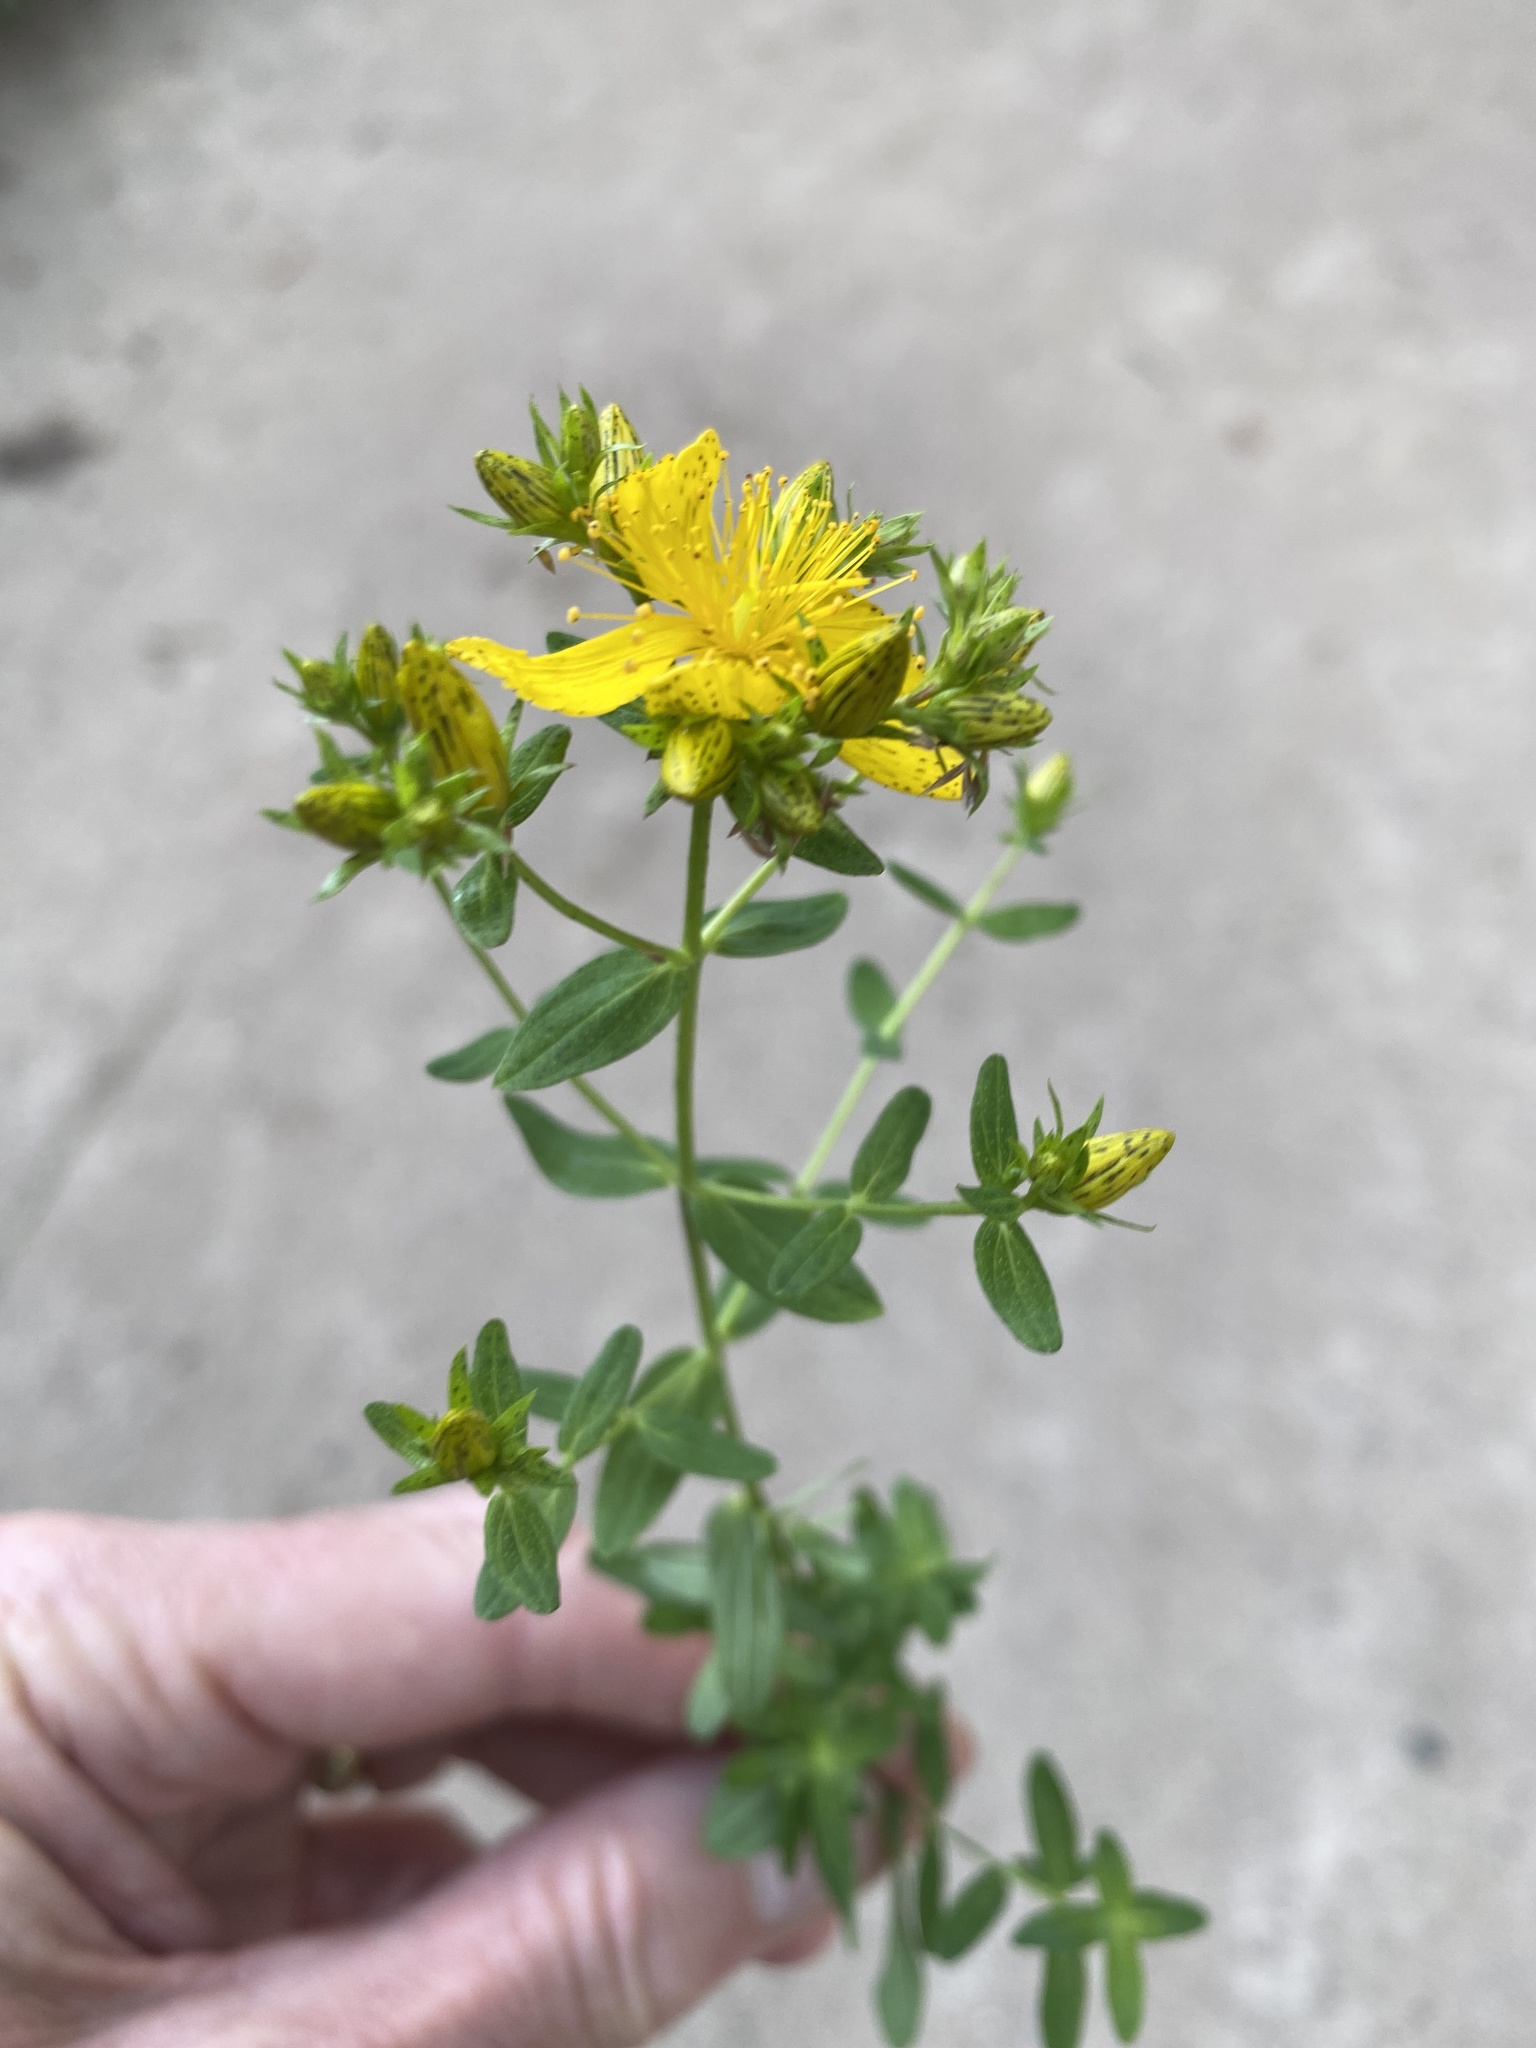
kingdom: Plantae
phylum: Tracheophyta
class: Magnoliopsida
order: Malpighiales
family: Hypericaceae
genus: Hypericum
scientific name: Hypericum perforatum
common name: Common st. johnswort
